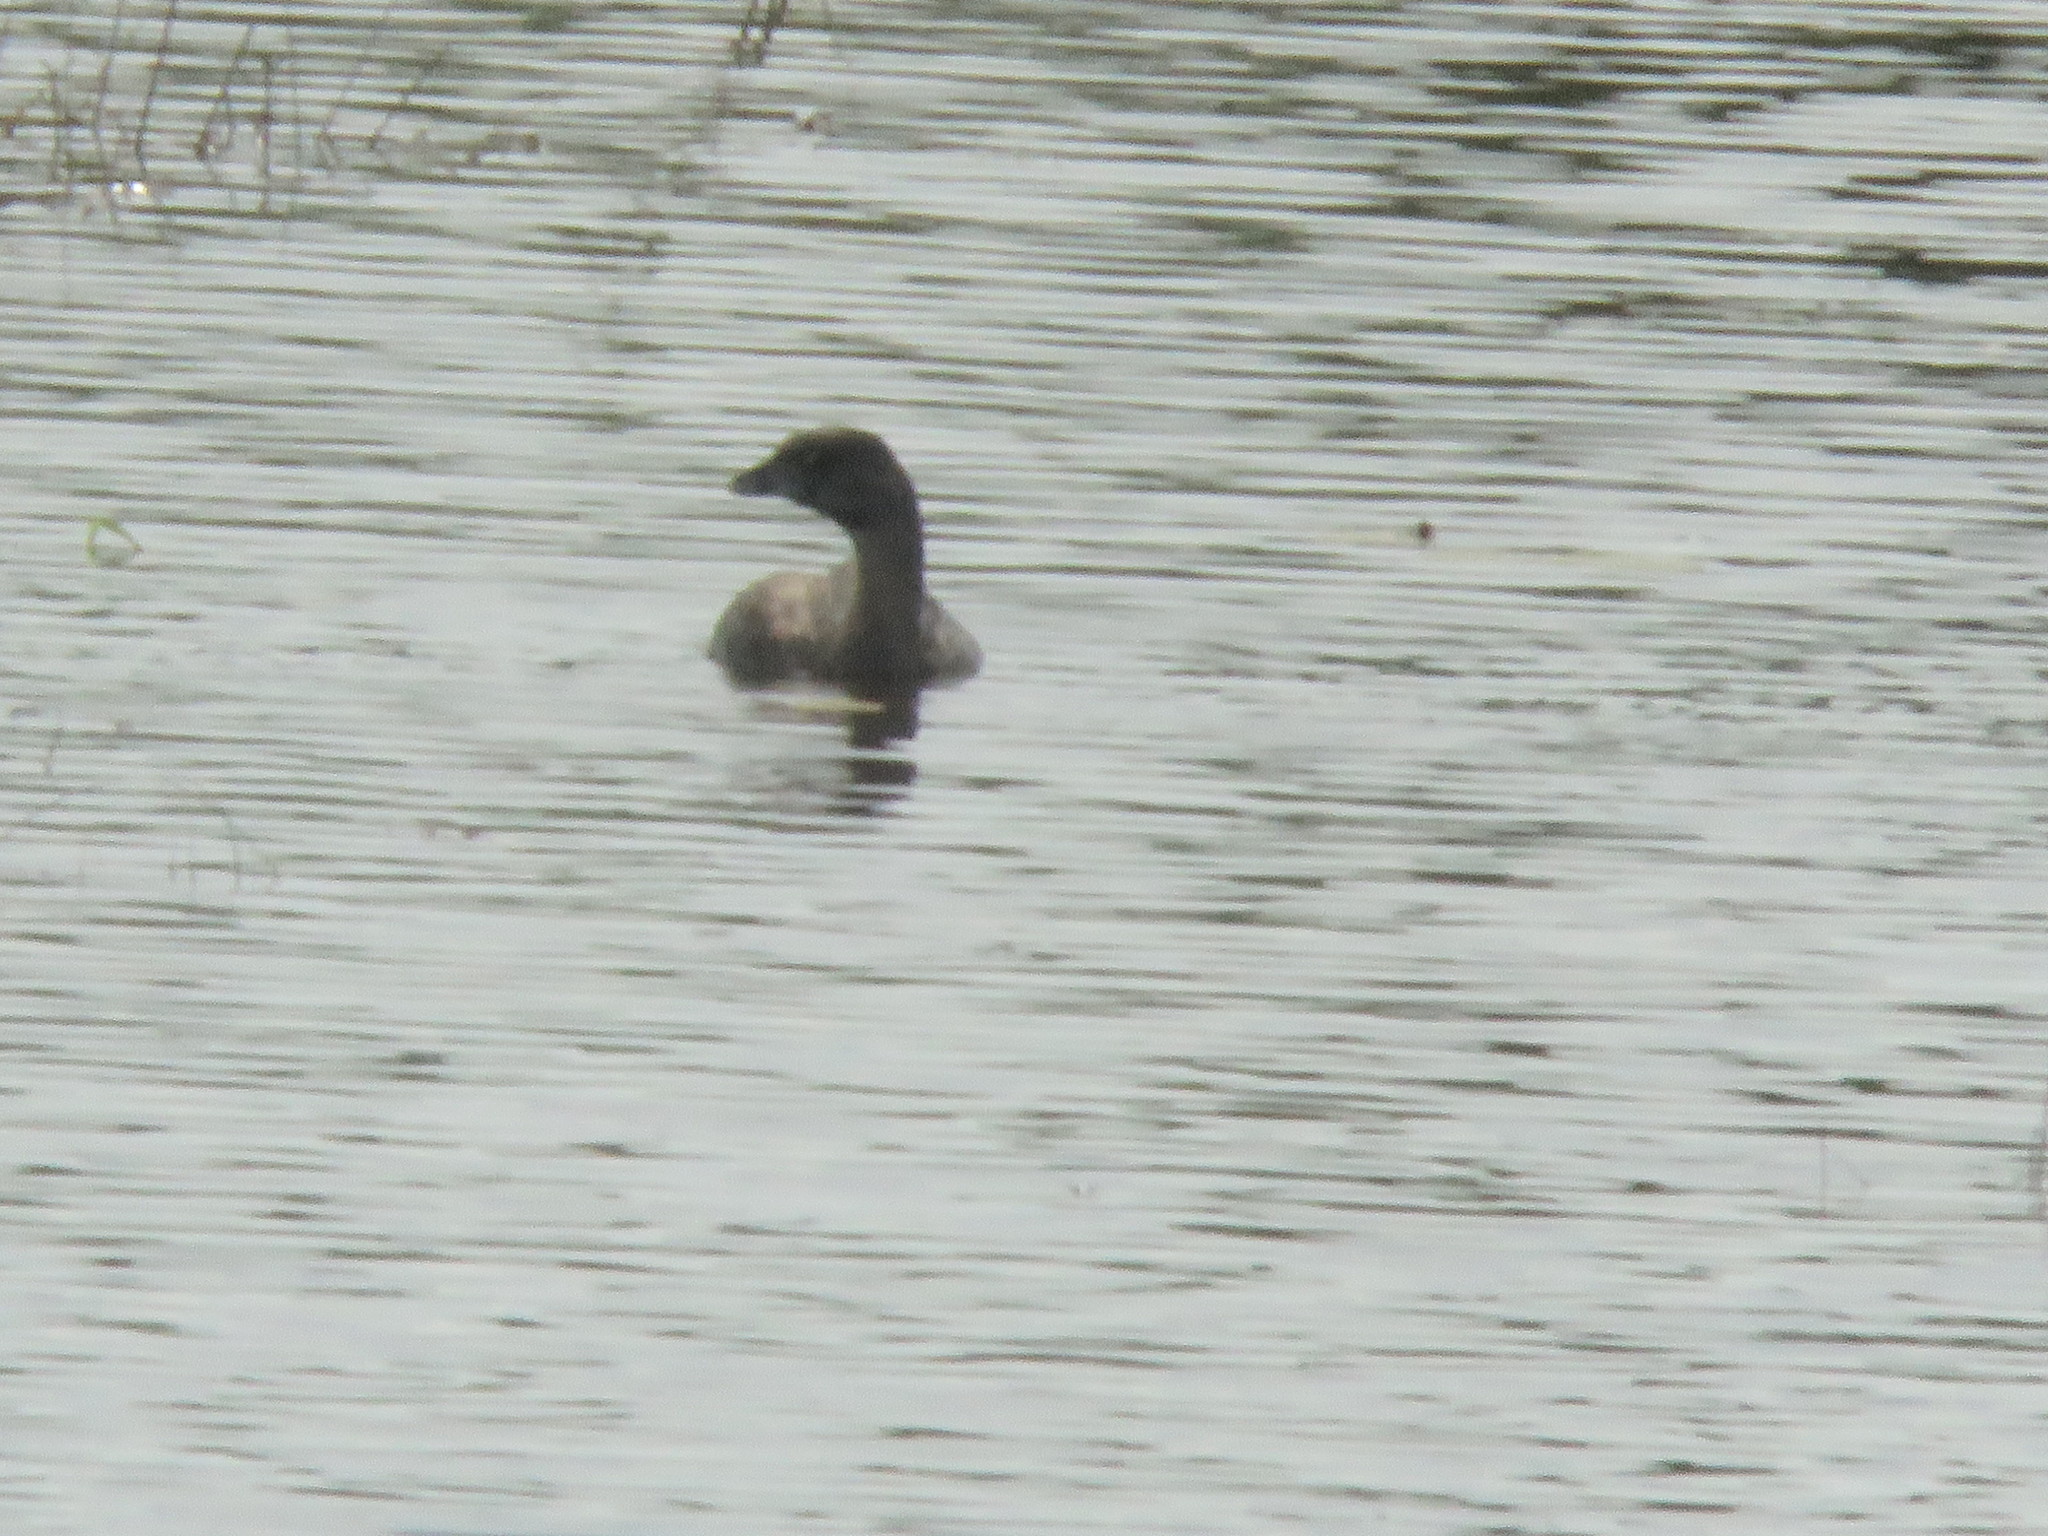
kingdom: Animalia
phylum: Chordata
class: Aves
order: Podicipediformes
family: Podicipedidae
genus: Podilymbus
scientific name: Podilymbus podiceps
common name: Pied-billed grebe
